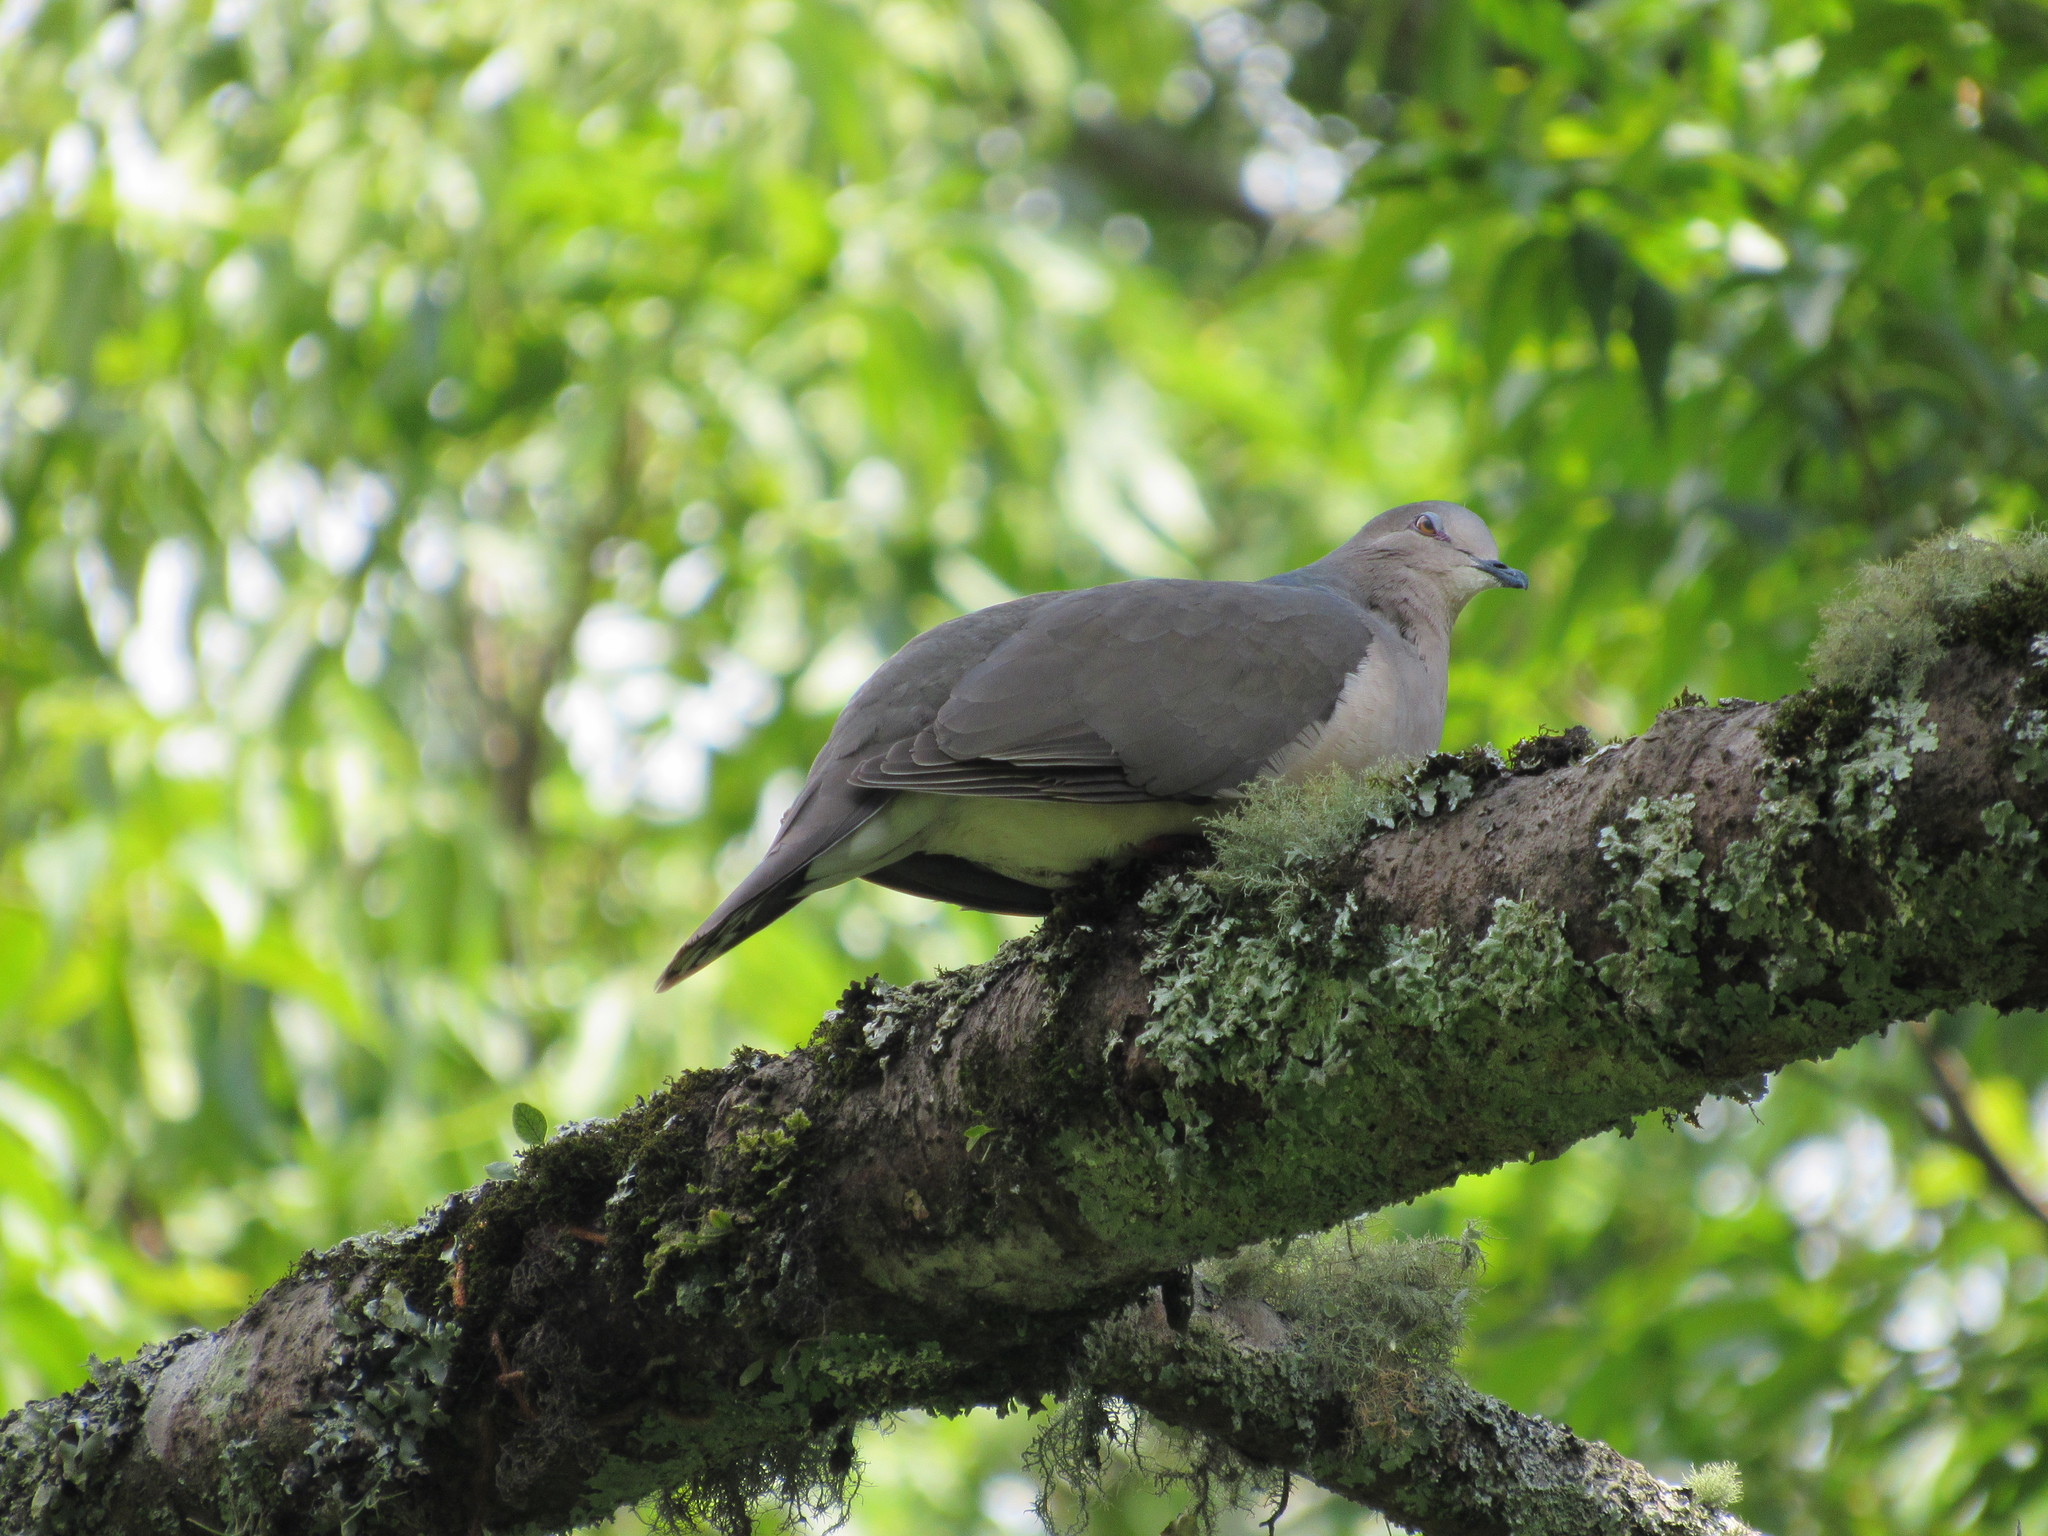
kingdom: Animalia
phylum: Chordata
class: Aves
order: Columbiformes
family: Columbidae
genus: Leptotila
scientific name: Leptotila verreauxi
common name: White-tipped dove
